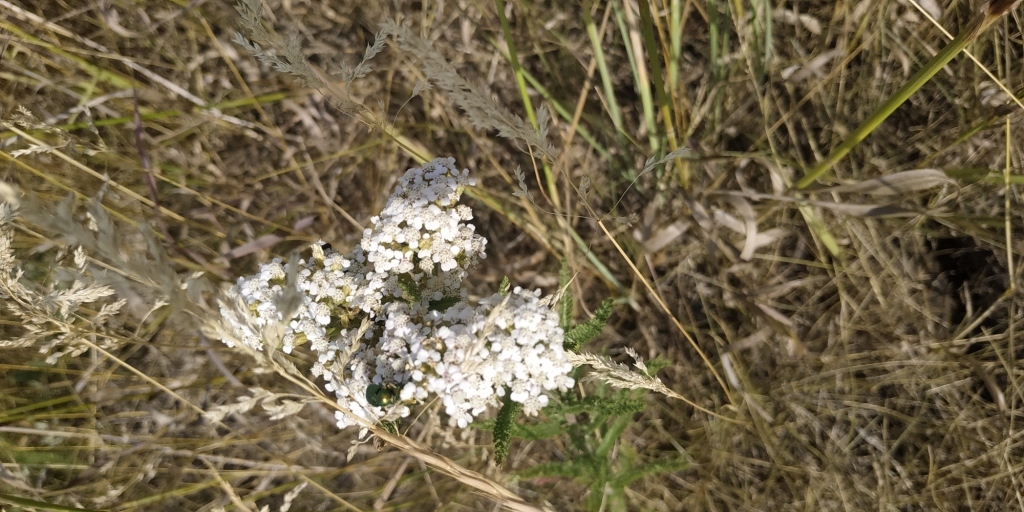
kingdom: Plantae
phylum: Tracheophyta
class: Magnoliopsida
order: Asterales
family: Asteraceae
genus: Achillea
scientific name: Achillea millefolium
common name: Yarrow
